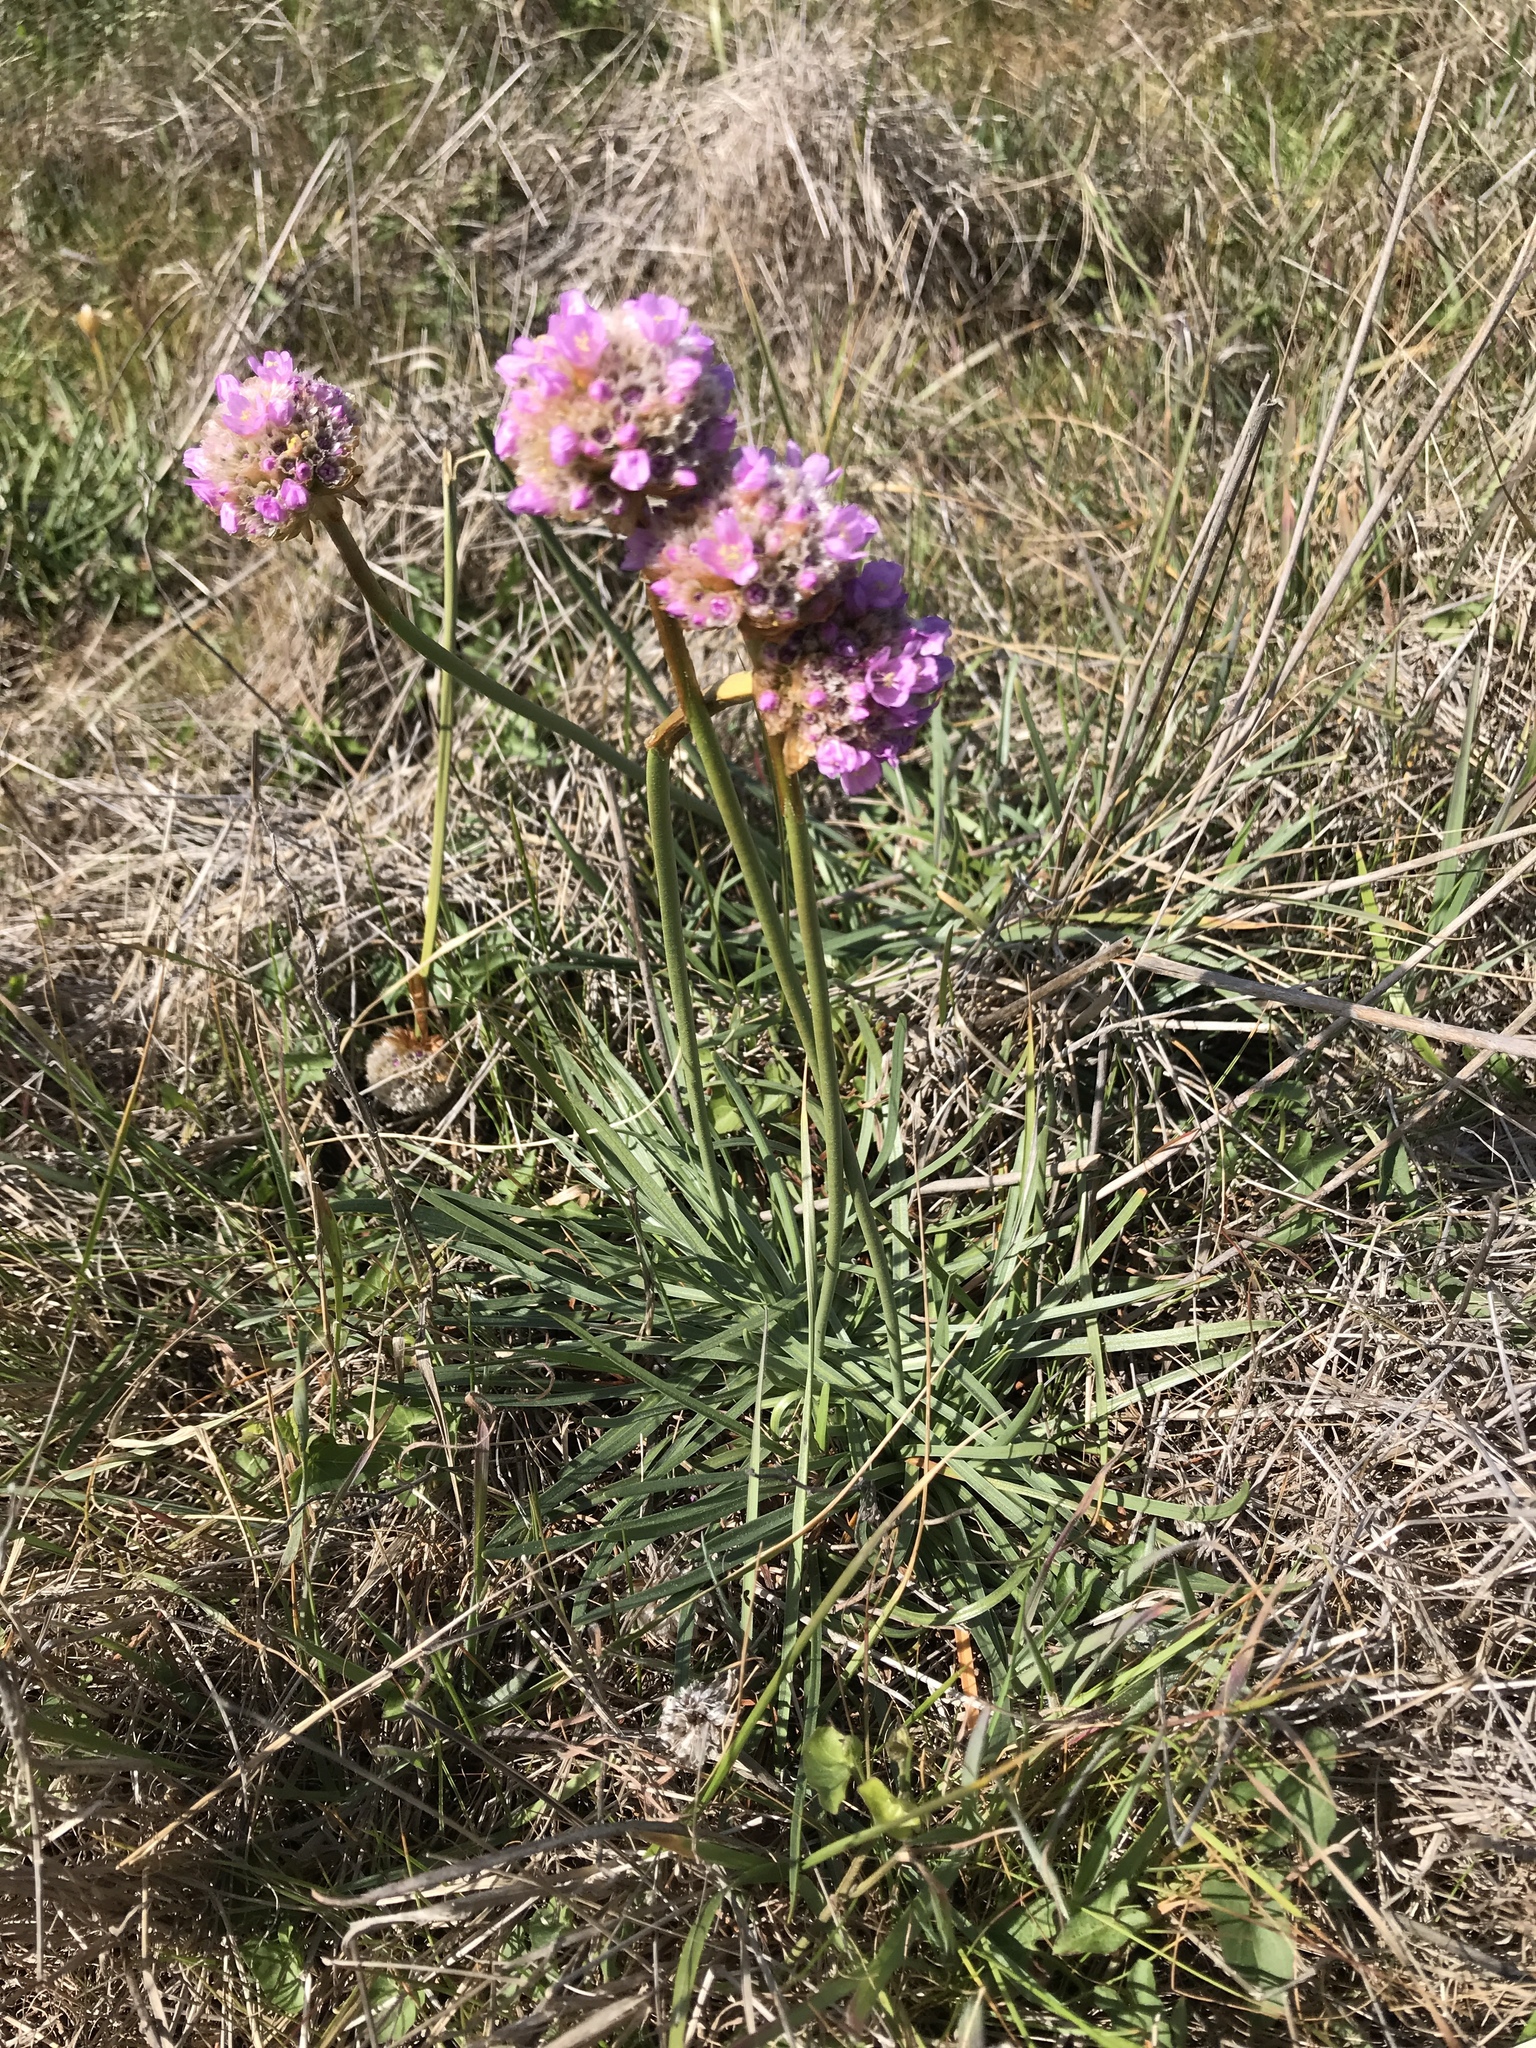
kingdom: Plantae
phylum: Tracheophyta
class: Magnoliopsida
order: Caryophyllales
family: Plumbaginaceae
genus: Armeria
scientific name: Armeria maritima
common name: Thrift
